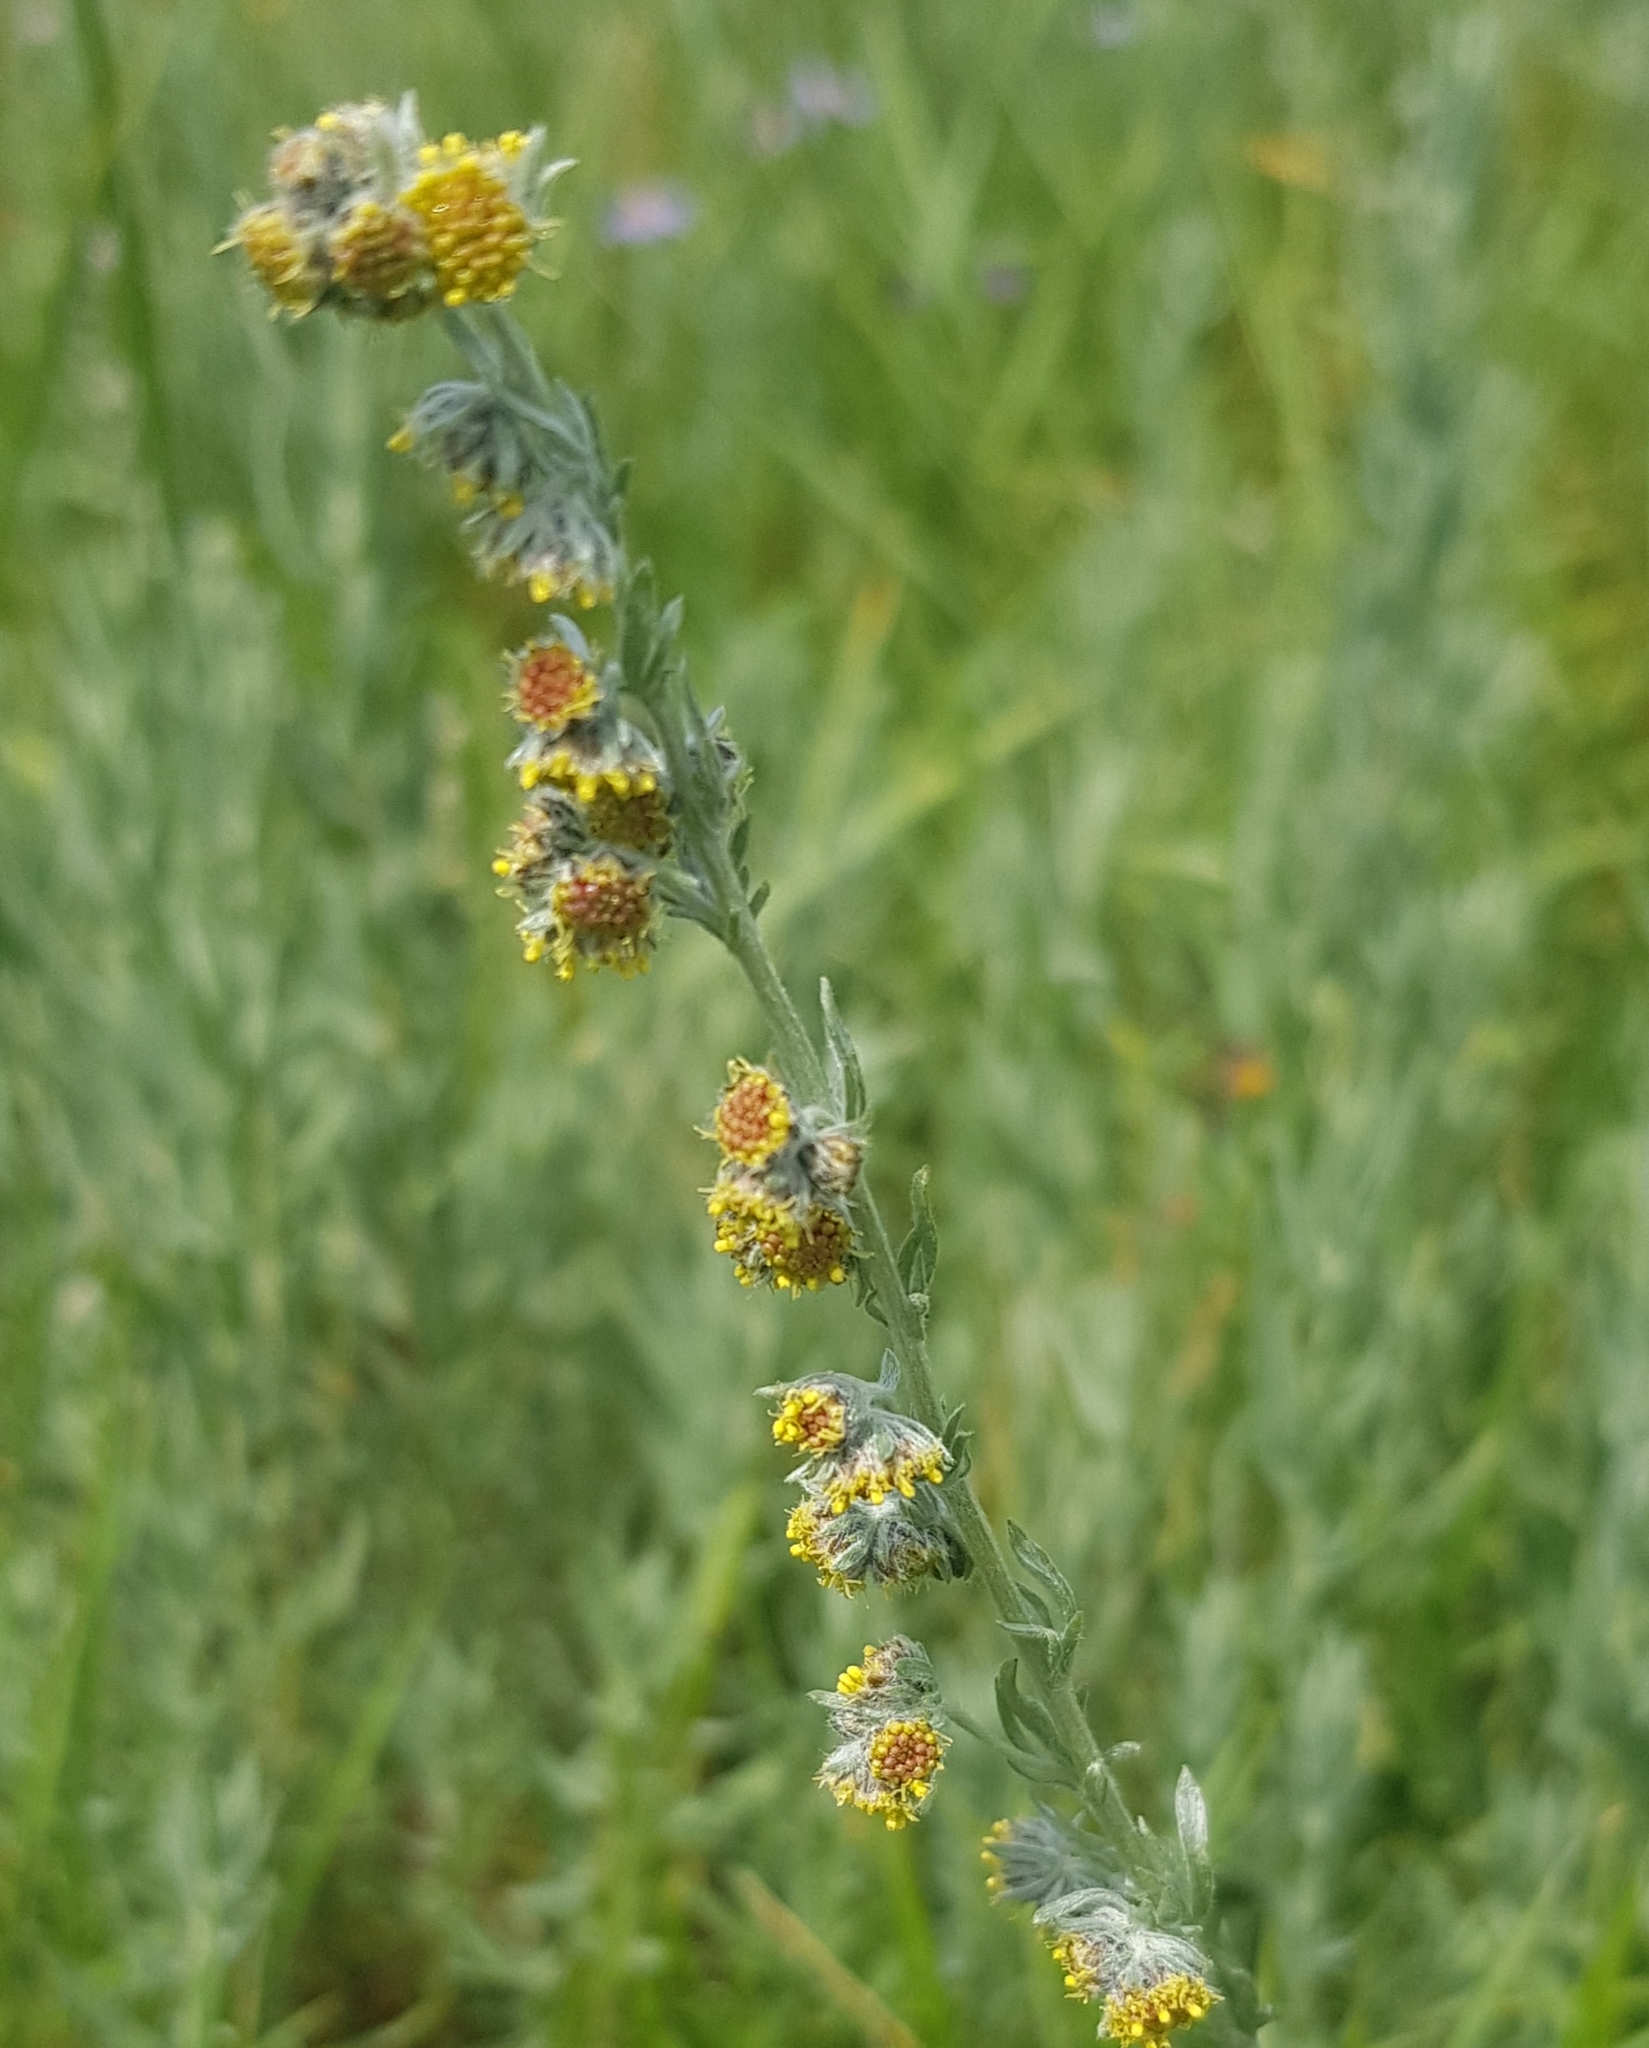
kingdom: Plantae
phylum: Tracheophyta
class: Magnoliopsida
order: Asterales
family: Asteraceae
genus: Artemisia
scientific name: Artemisia frigida
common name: Prairie sagewort
